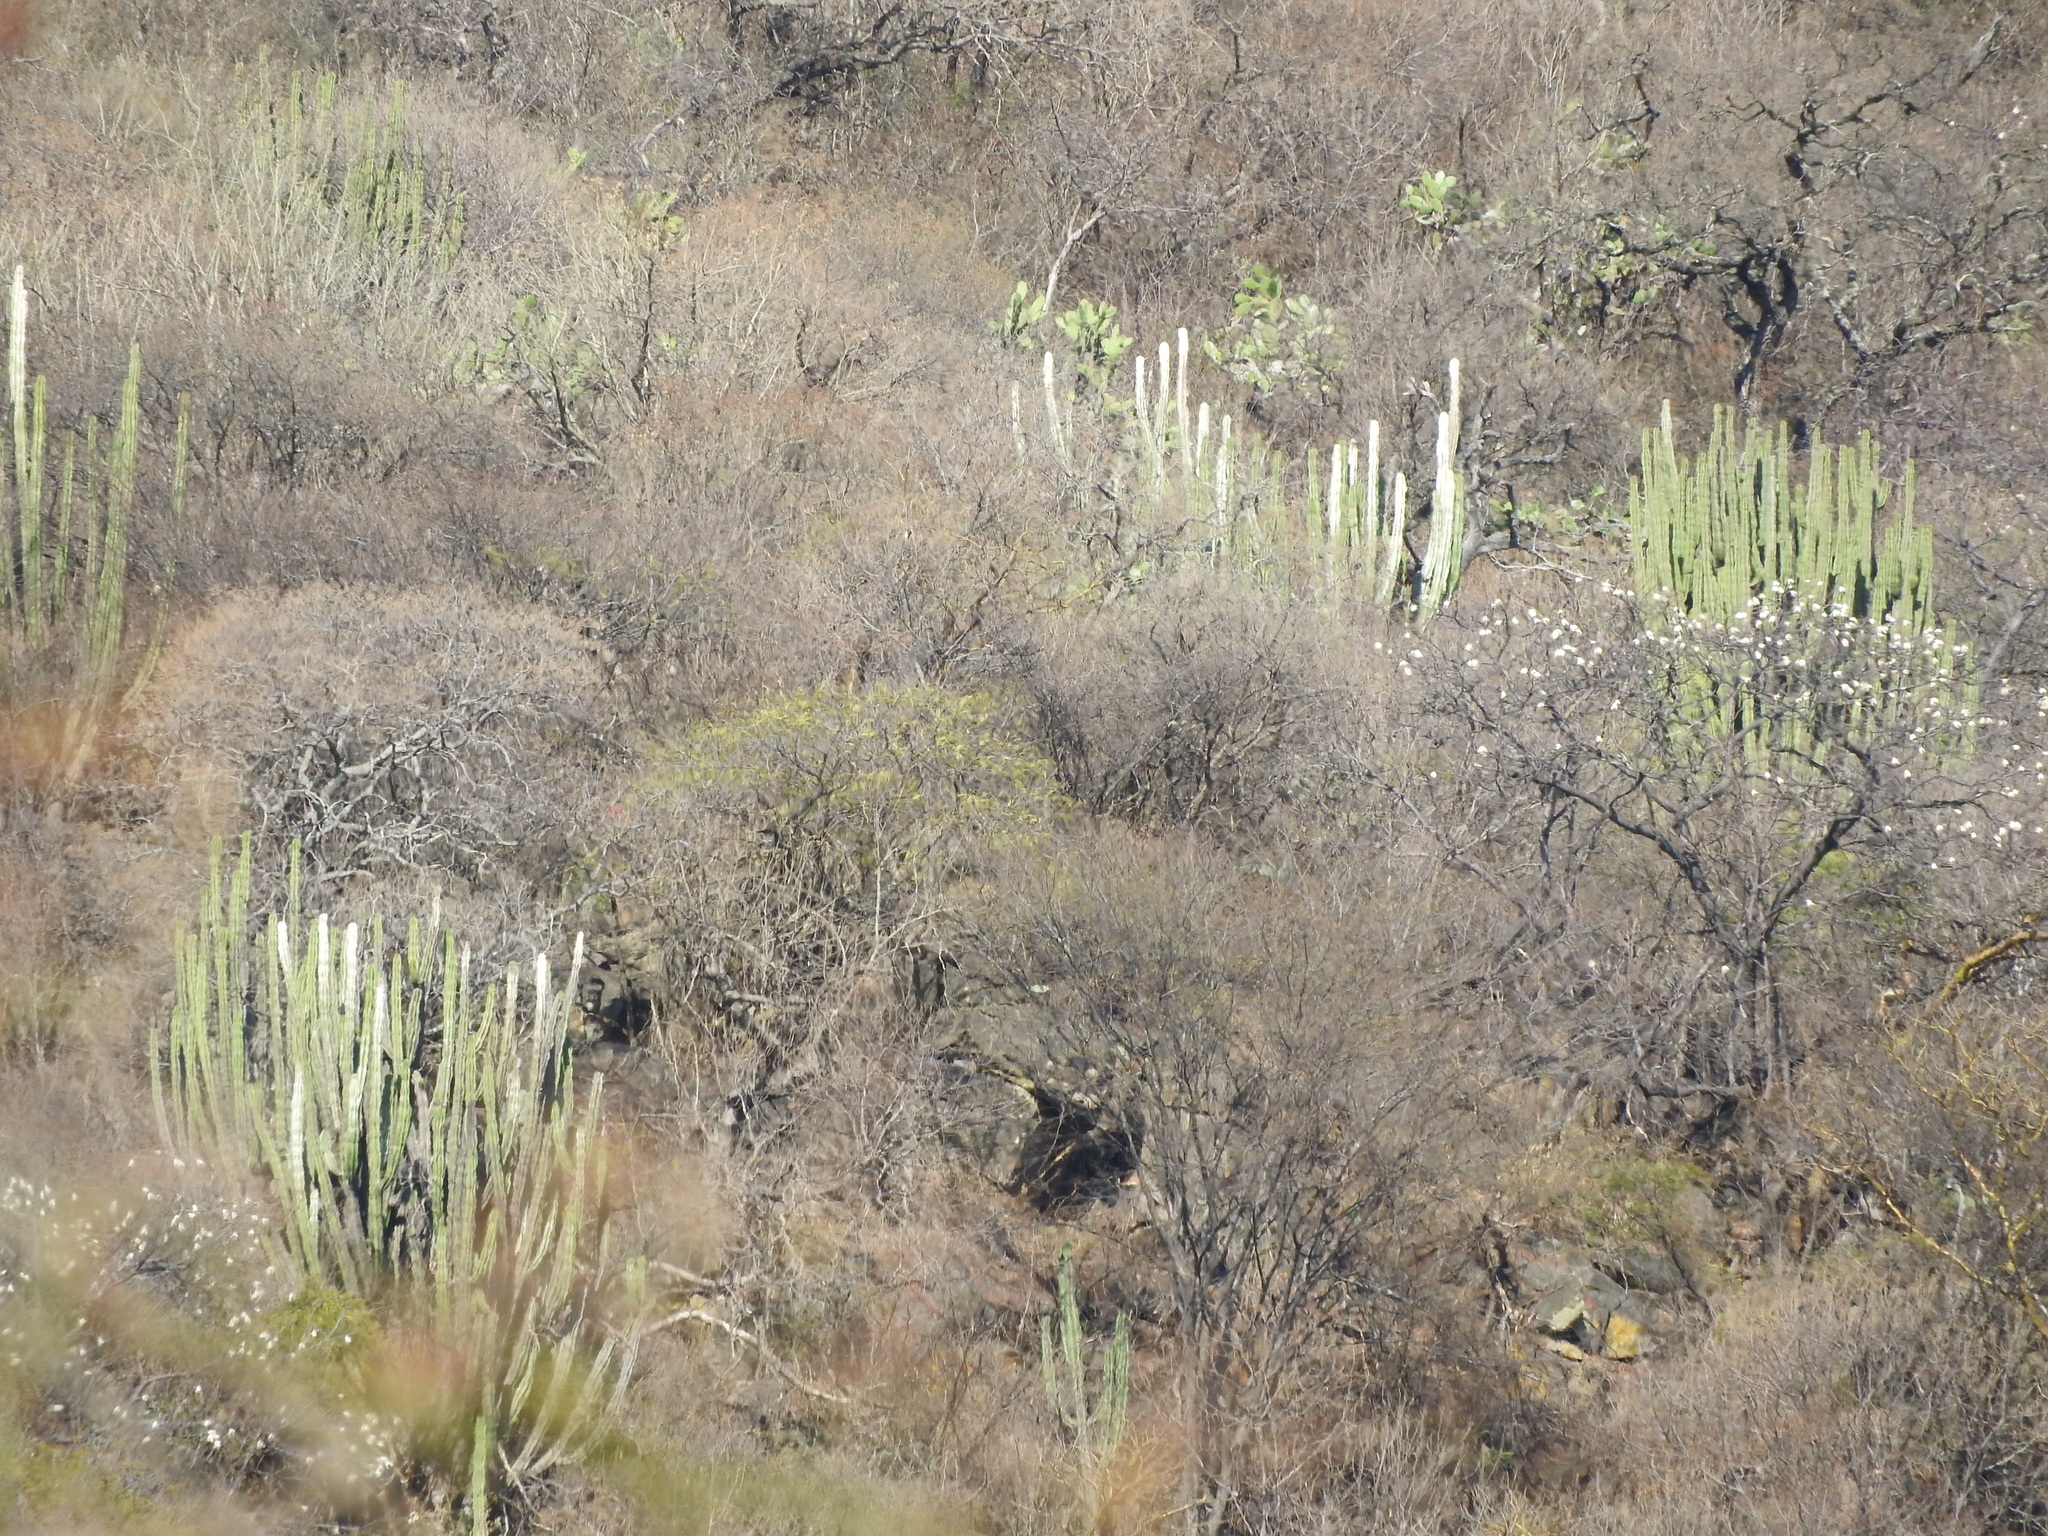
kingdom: Plantae
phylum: Tracheophyta
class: Magnoliopsida
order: Caryophyllales
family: Cactaceae
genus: Stenocereus
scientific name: Stenocereus dumortieri
